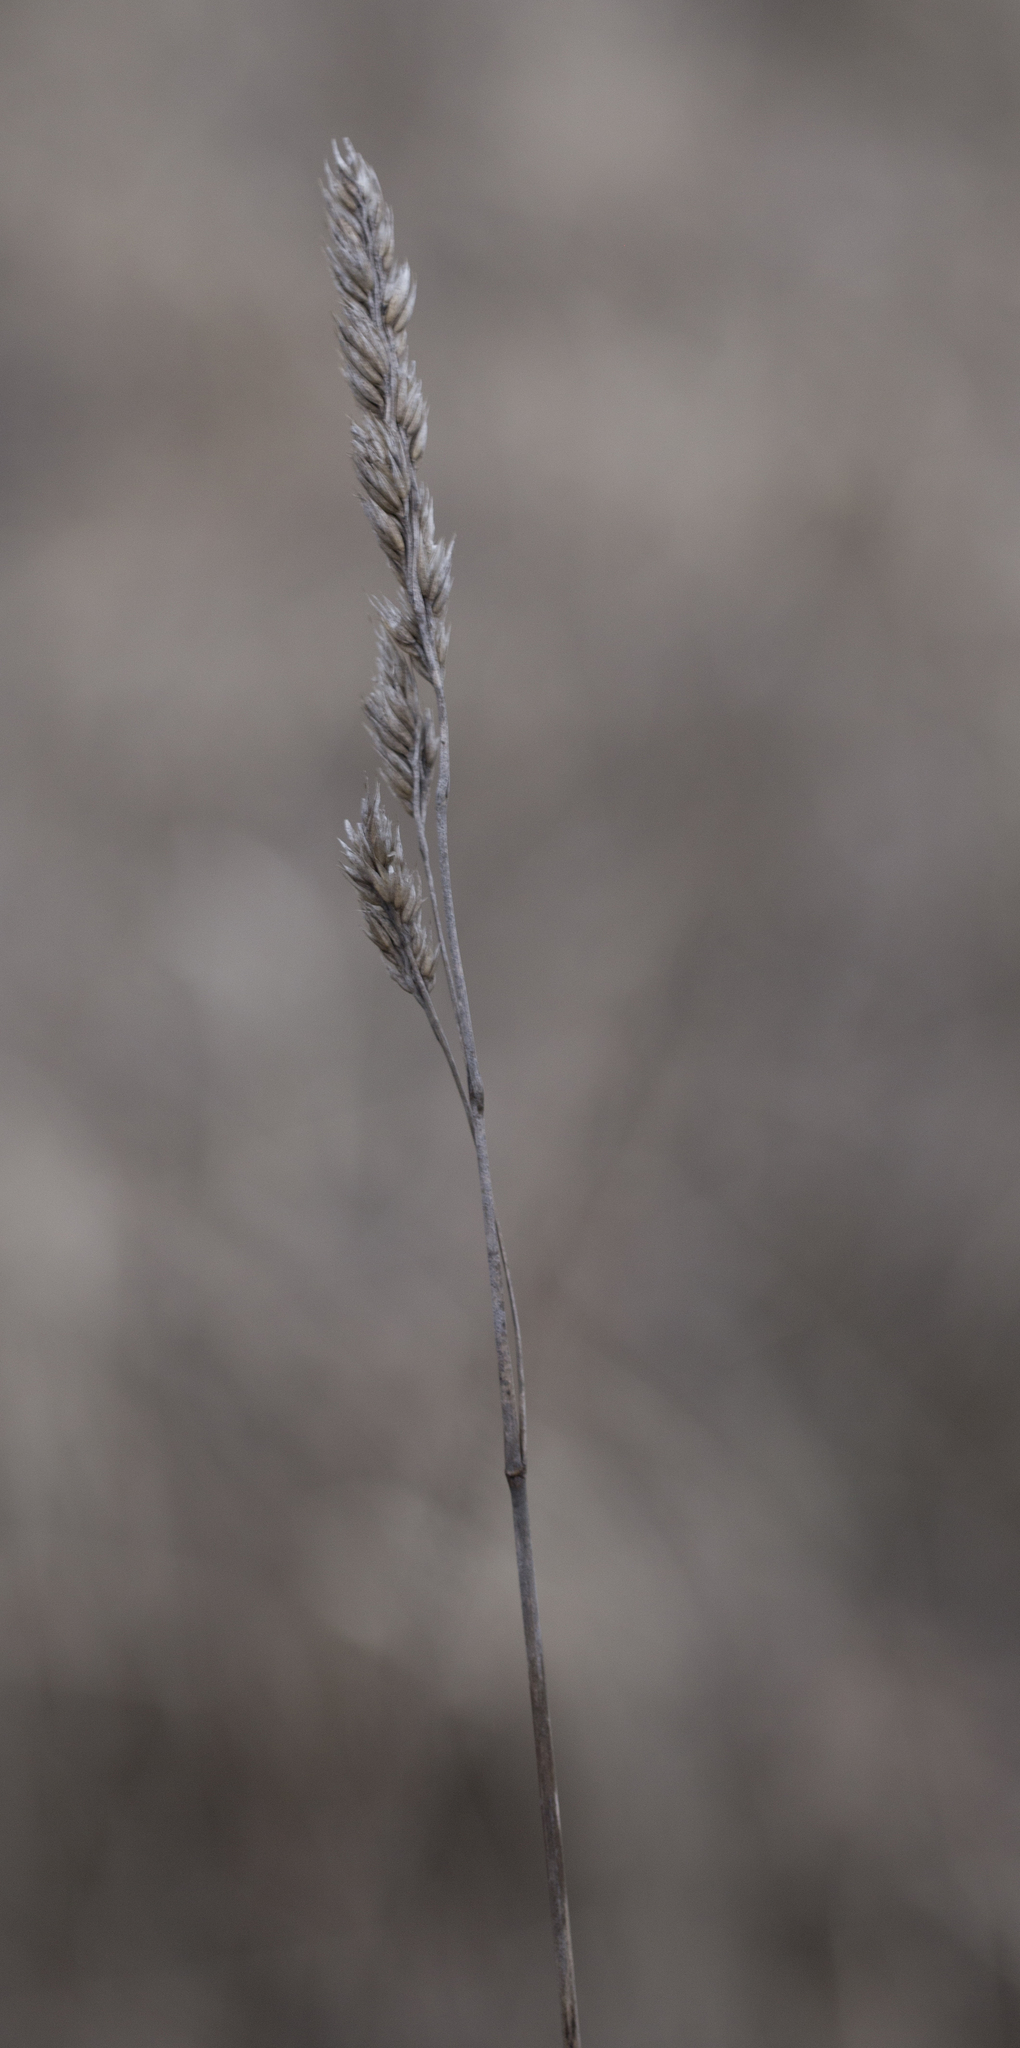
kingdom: Plantae
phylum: Tracheophyta
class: Liliopsida
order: Poales
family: Poaceae
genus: Dactylis
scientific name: Dactylis glomerata
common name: Orchardgrass
